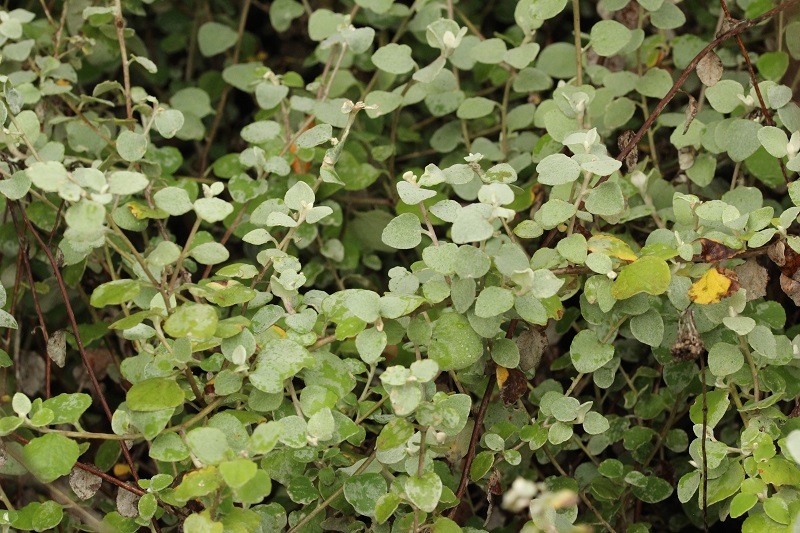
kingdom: Plantae
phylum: Tracheophyta
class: Magnoliopsida
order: Asterales
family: Asteraceae
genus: Helichrysum
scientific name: Helichrysum petiolare
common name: Licorice-plant
